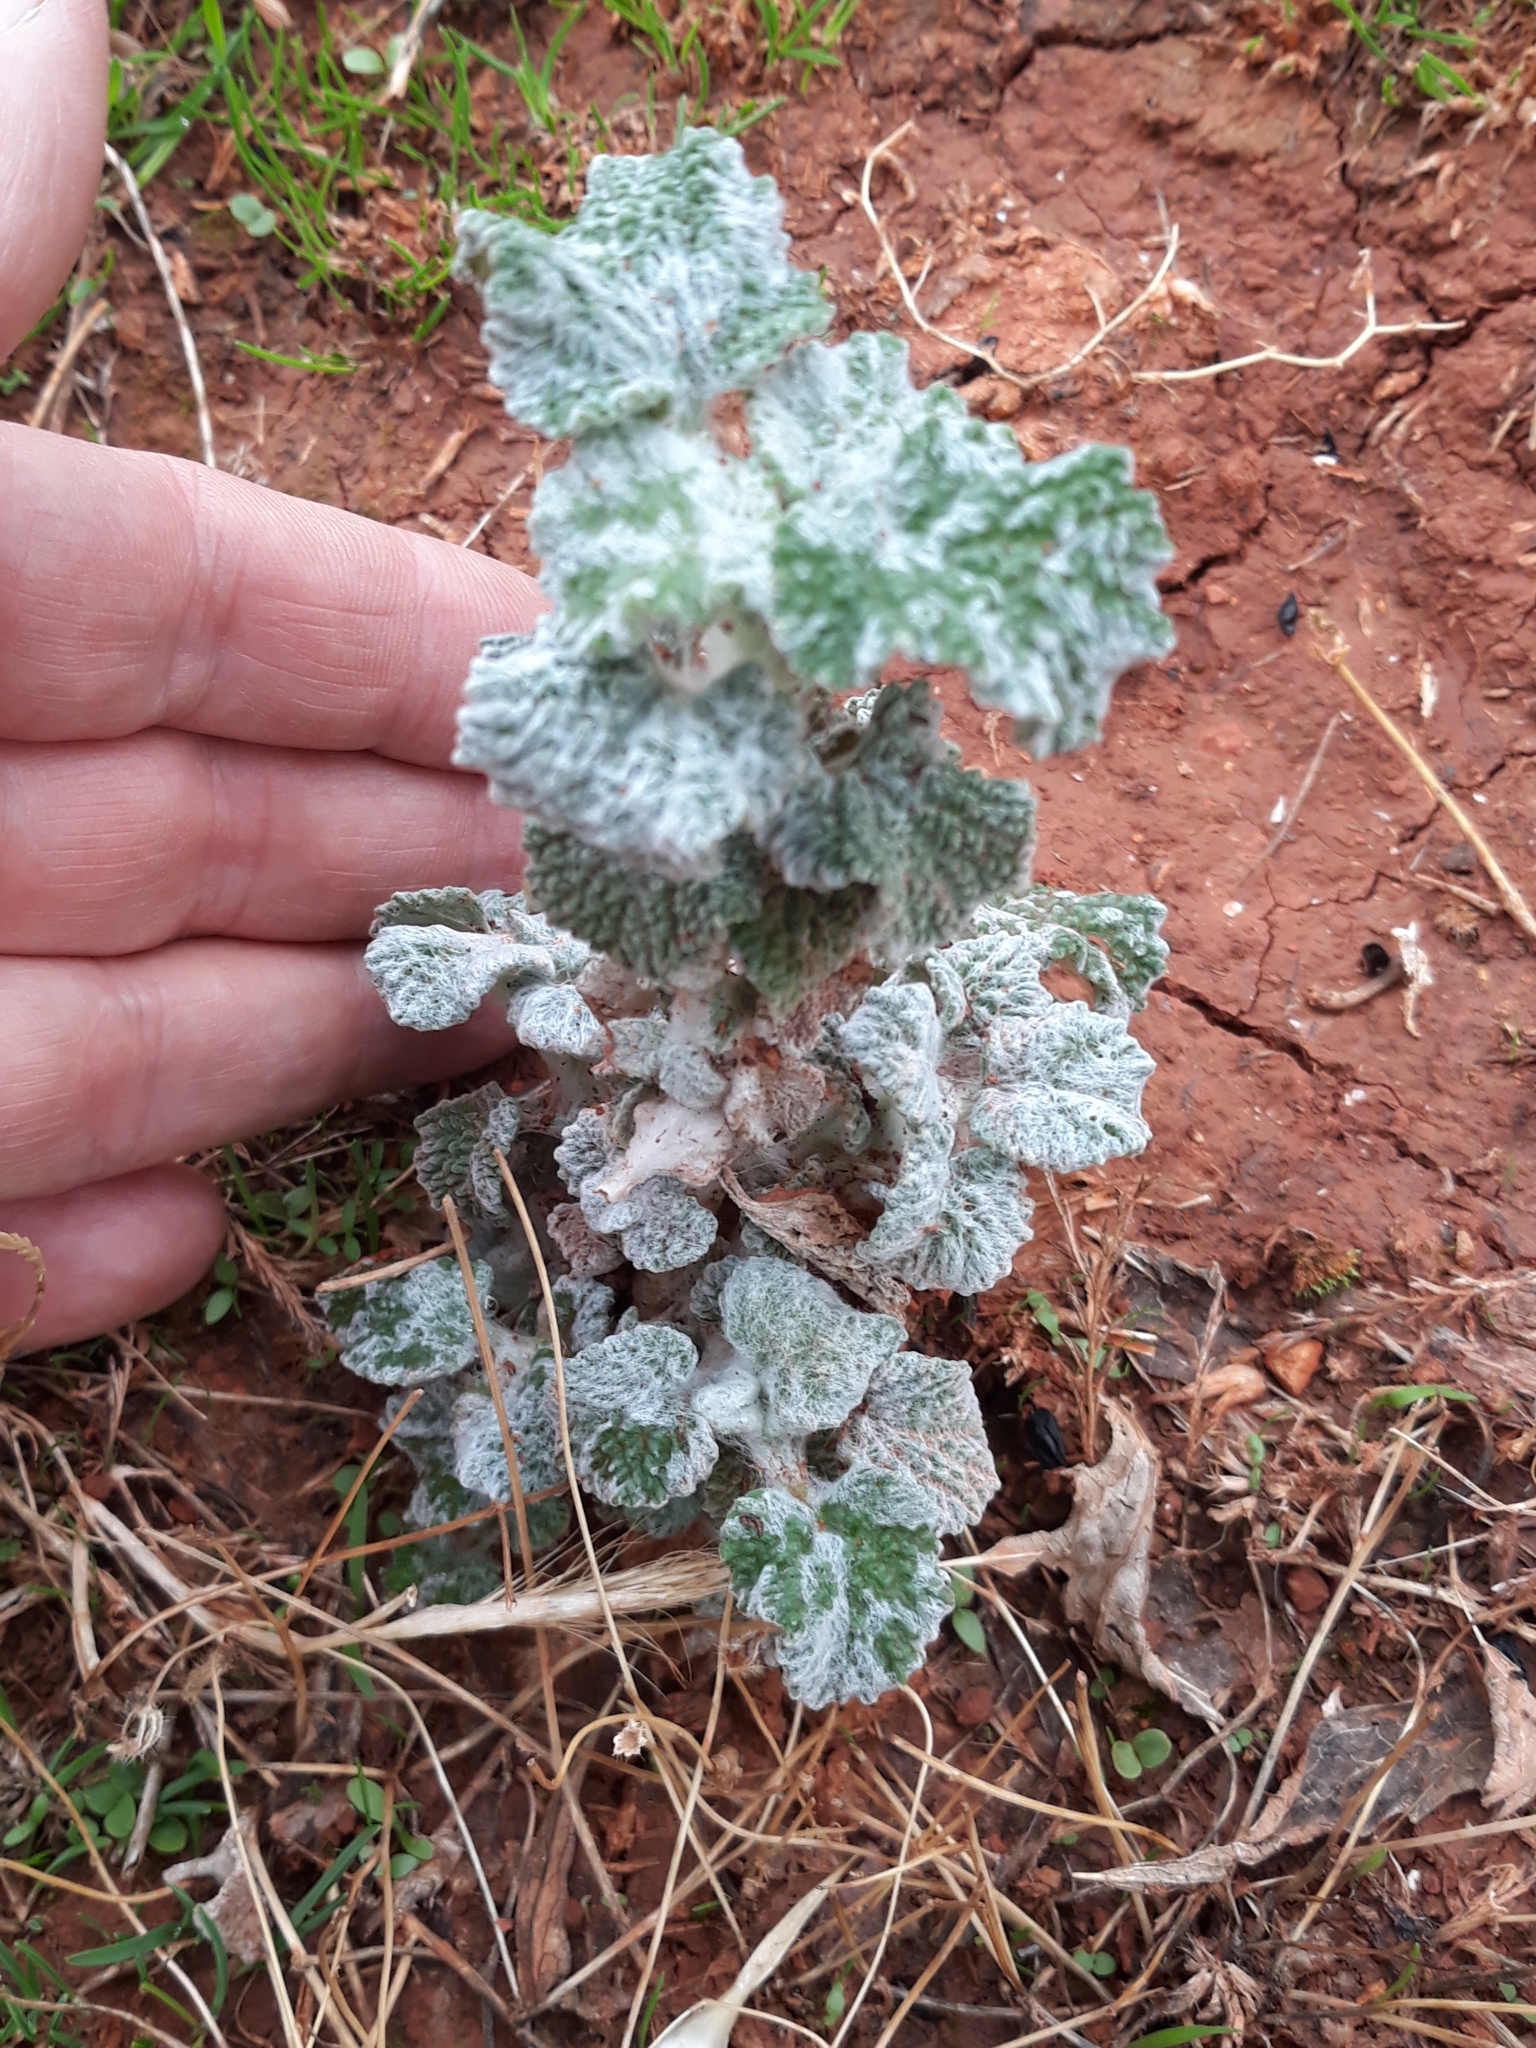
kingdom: Plantae
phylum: Tracheophyta
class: Magnoliopsida
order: Lamiales
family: Lamiaceae
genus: Marrubium
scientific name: Marrubium vulgare
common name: Horehound
